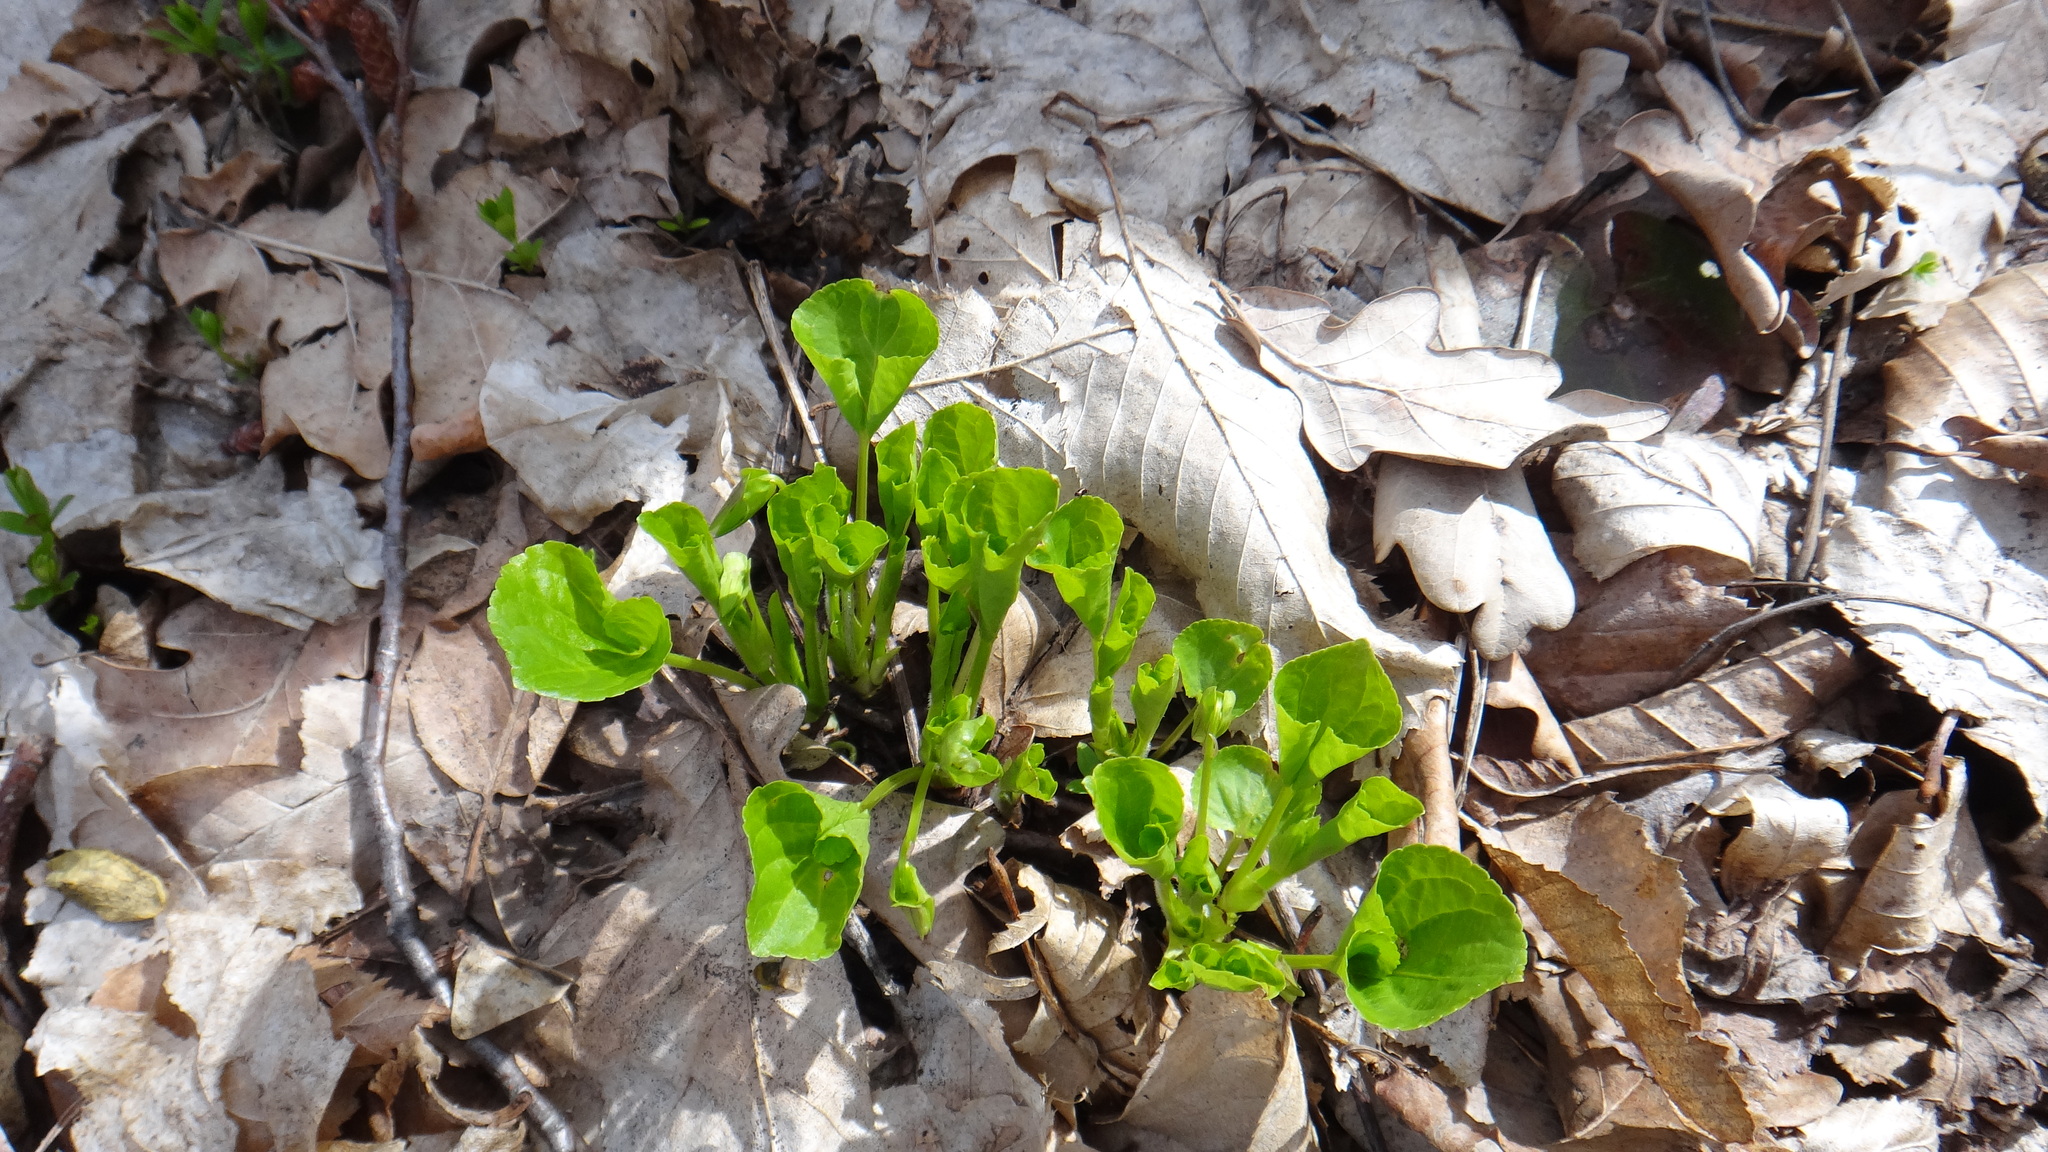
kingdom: Plantae
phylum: Tracheophyta
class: Magnoliopsida
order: Malpighiales
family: Violaceae
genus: Viola
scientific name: Viola mirabilis
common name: Wonder violet
